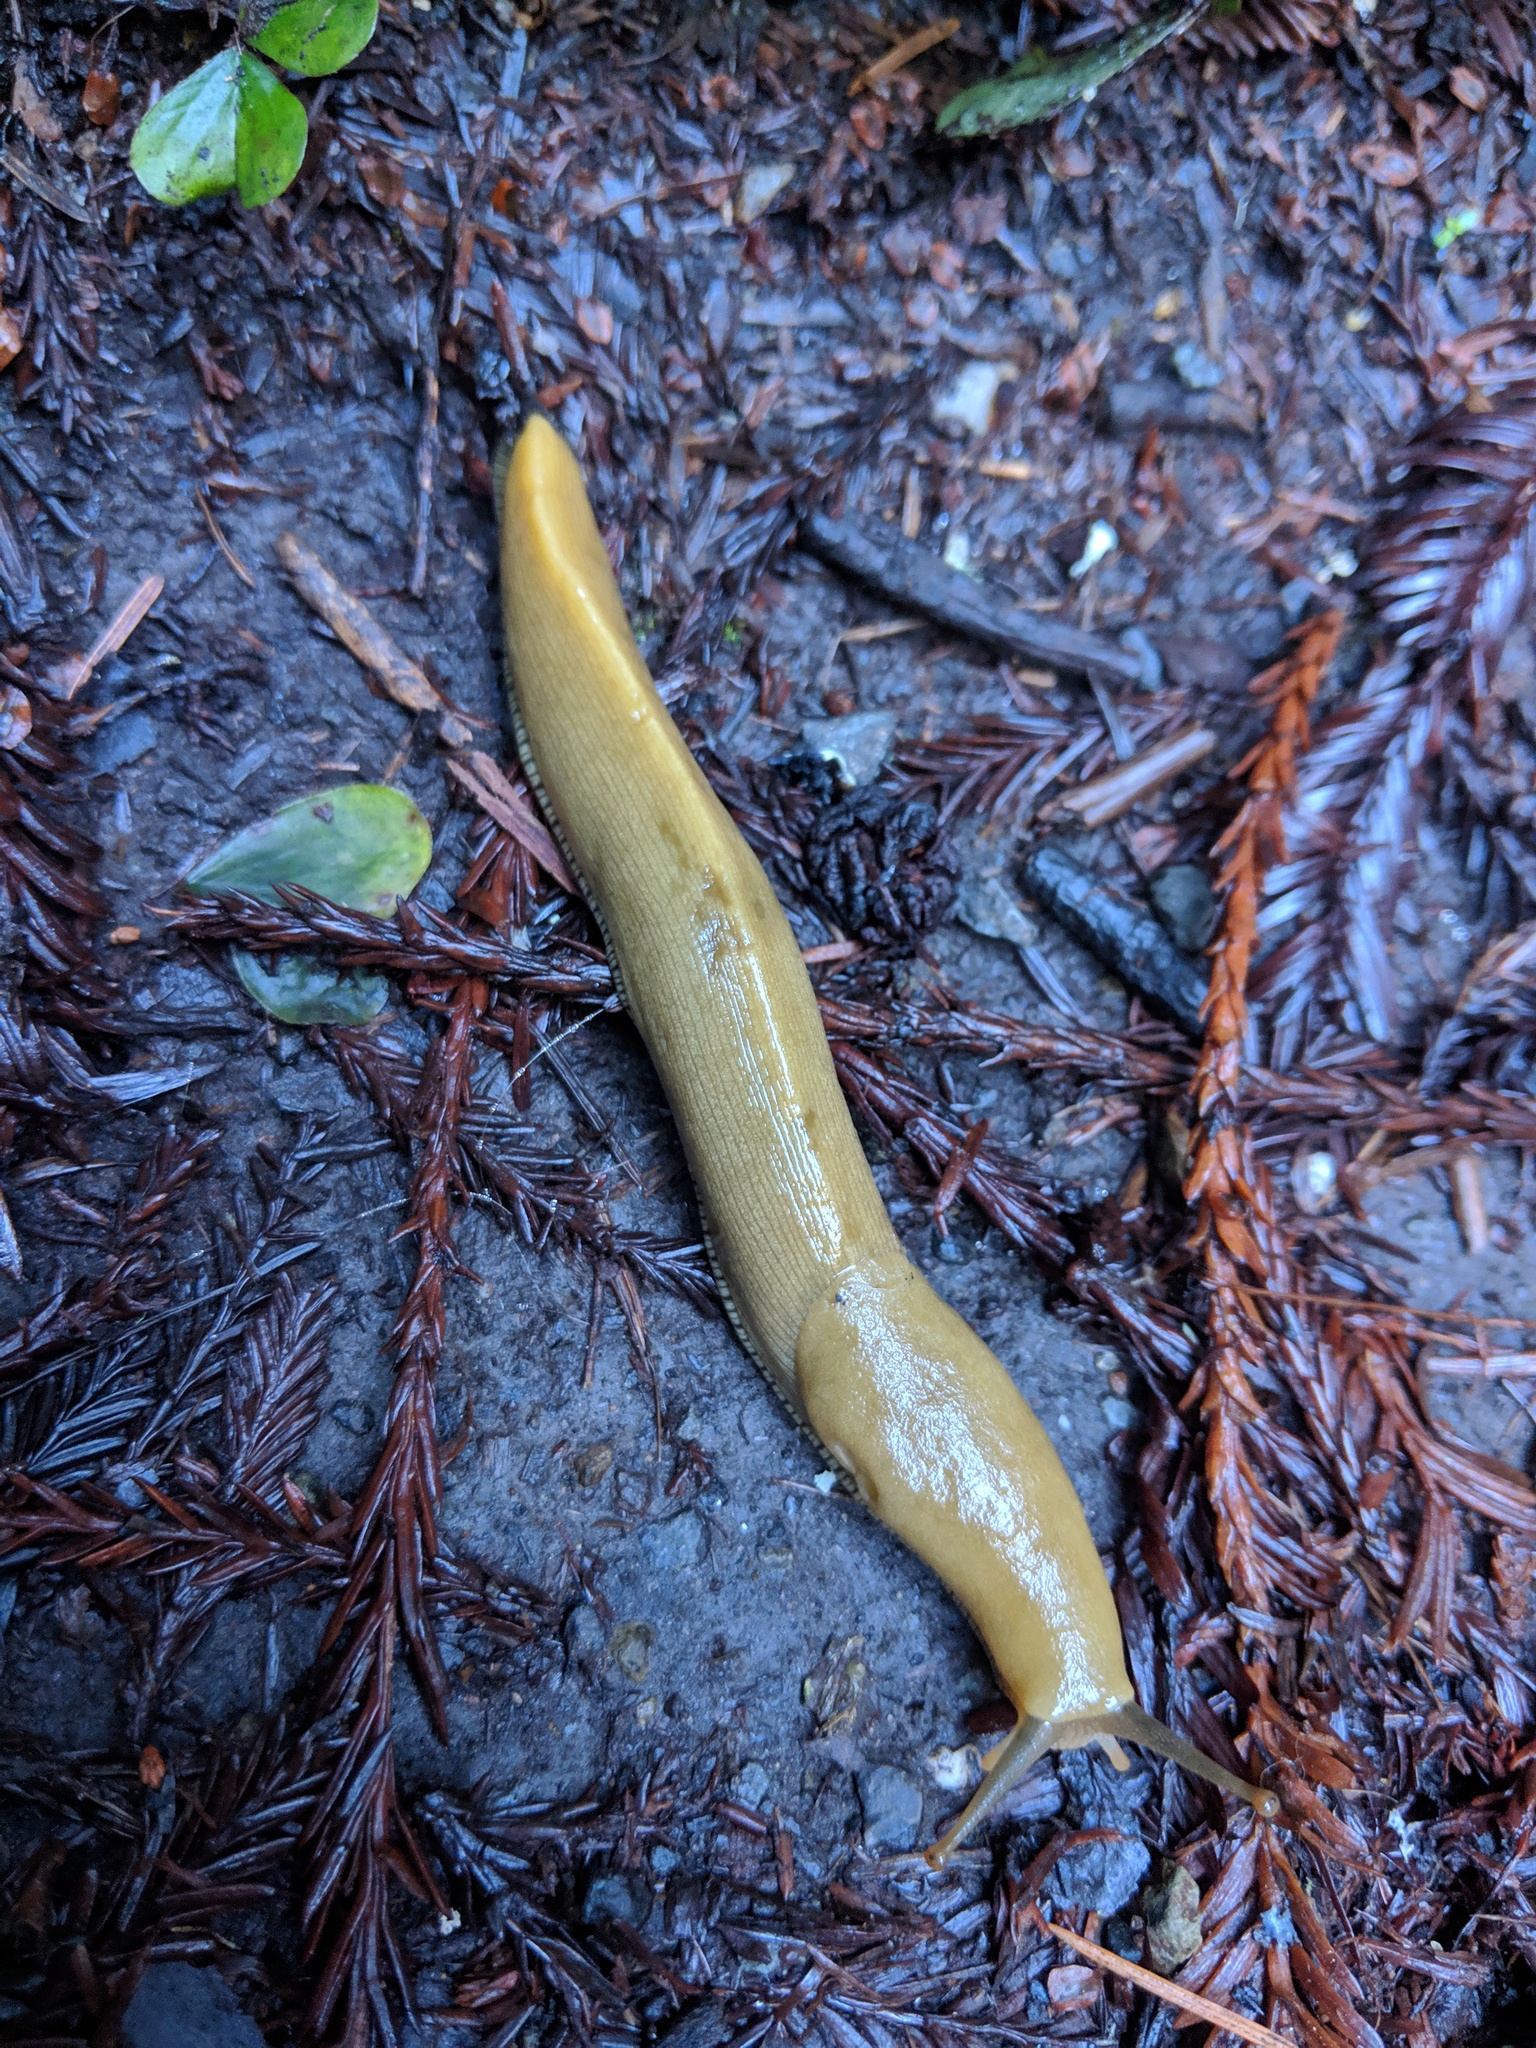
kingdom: Animalia
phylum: Mollusca
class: Gastropoda
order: Stylommatophora
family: Ariolimacidae
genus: Ariolimax
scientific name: Ariolimax buttoni
